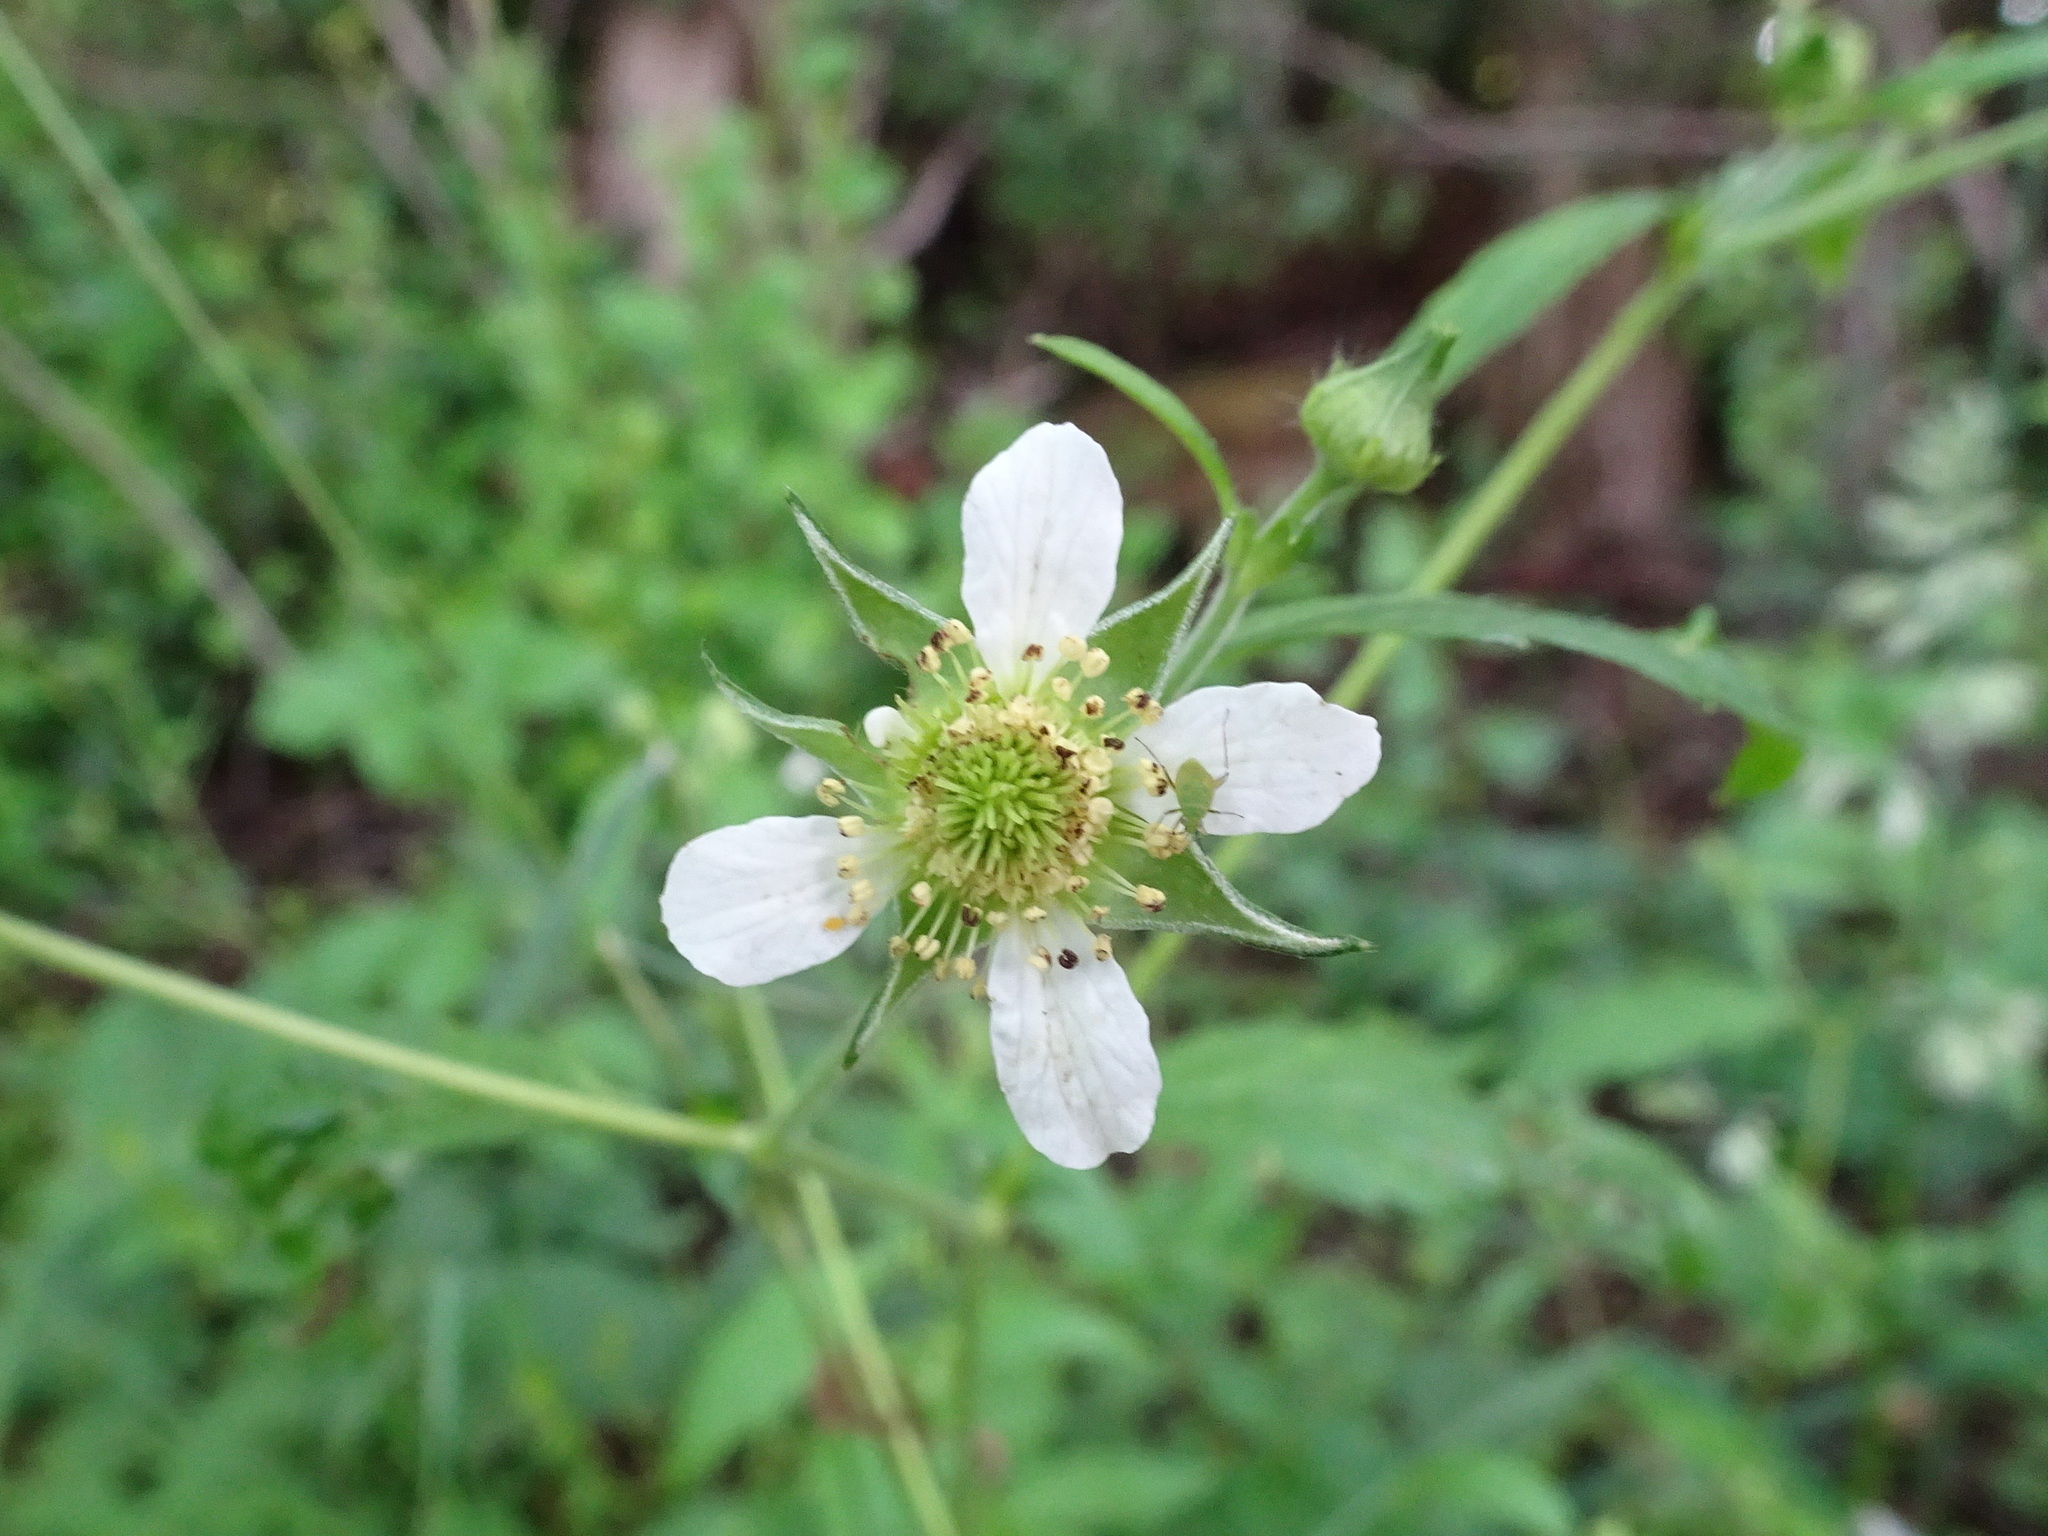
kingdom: Plantae
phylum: Tracheophyta
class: Magnoliopsida
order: Rosales
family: Rosaceae
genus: Geum
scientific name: Geum canadense
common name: White avens
